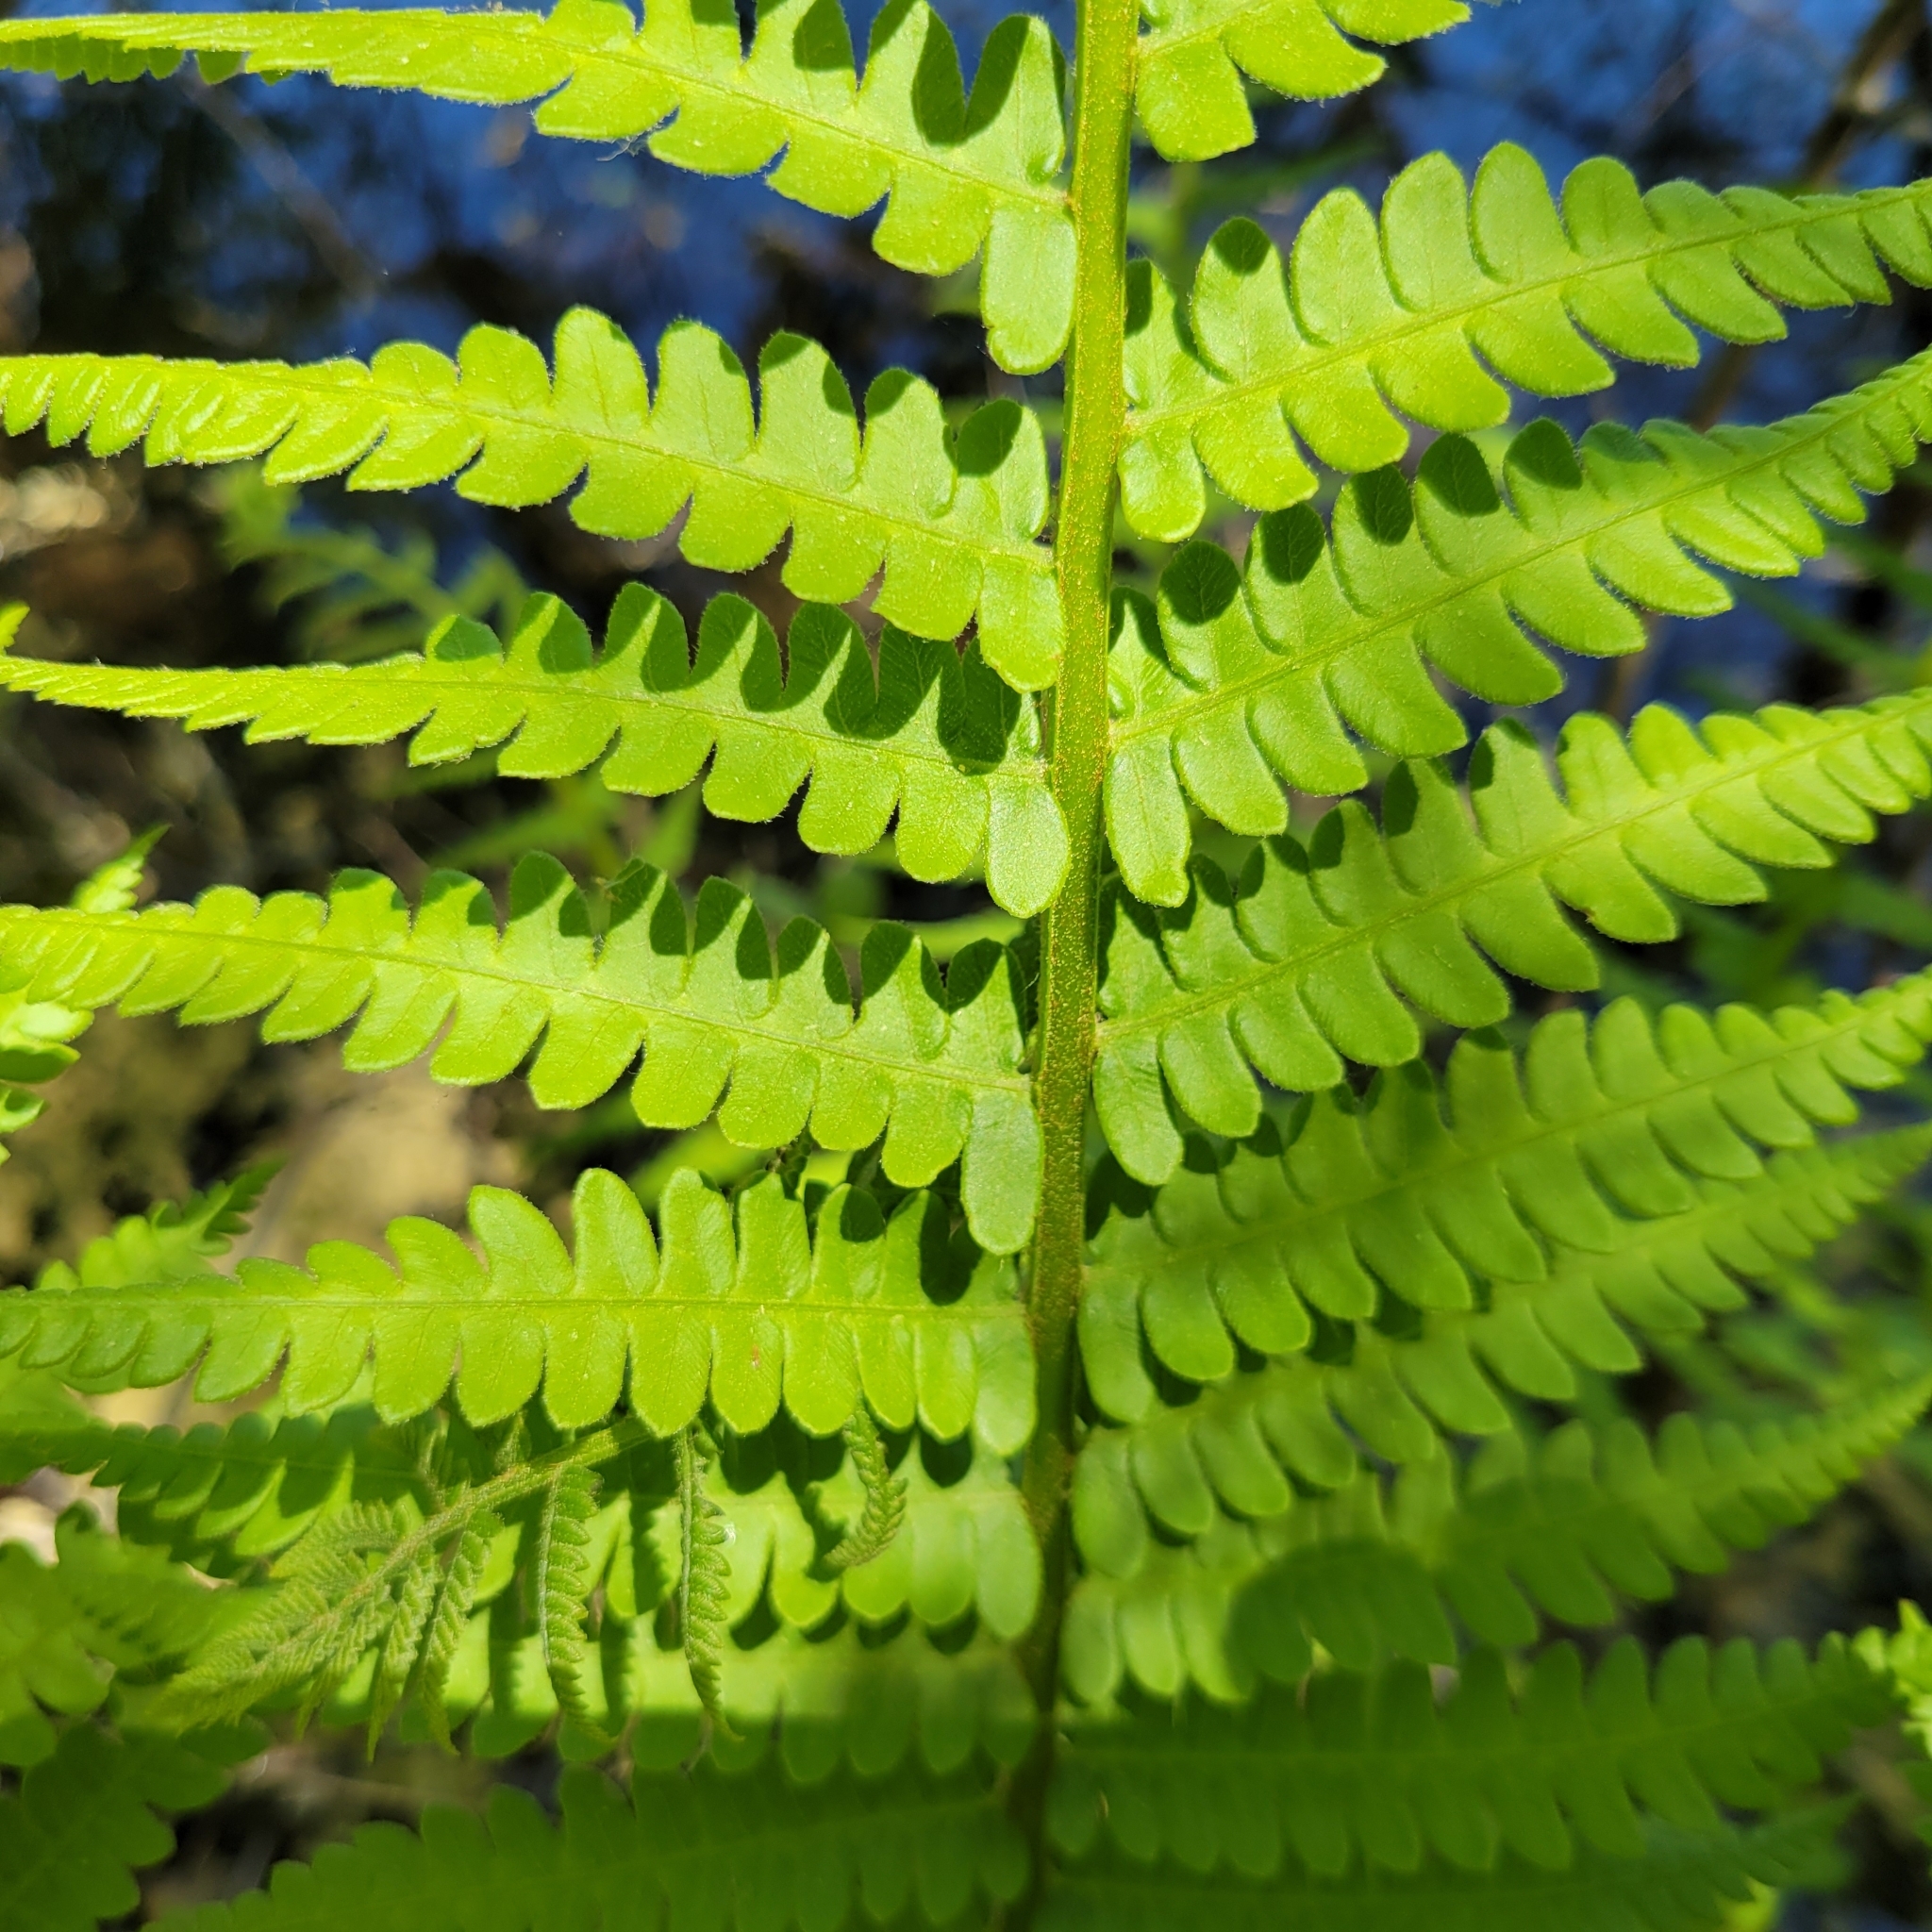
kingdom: Plantae
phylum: Tracheophyta
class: Polypodiopsida
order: Osmundales
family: Osmundaceae
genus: Osmundastrum
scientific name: Osmundastrum cinnamomeum
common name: Cinnamon fern
